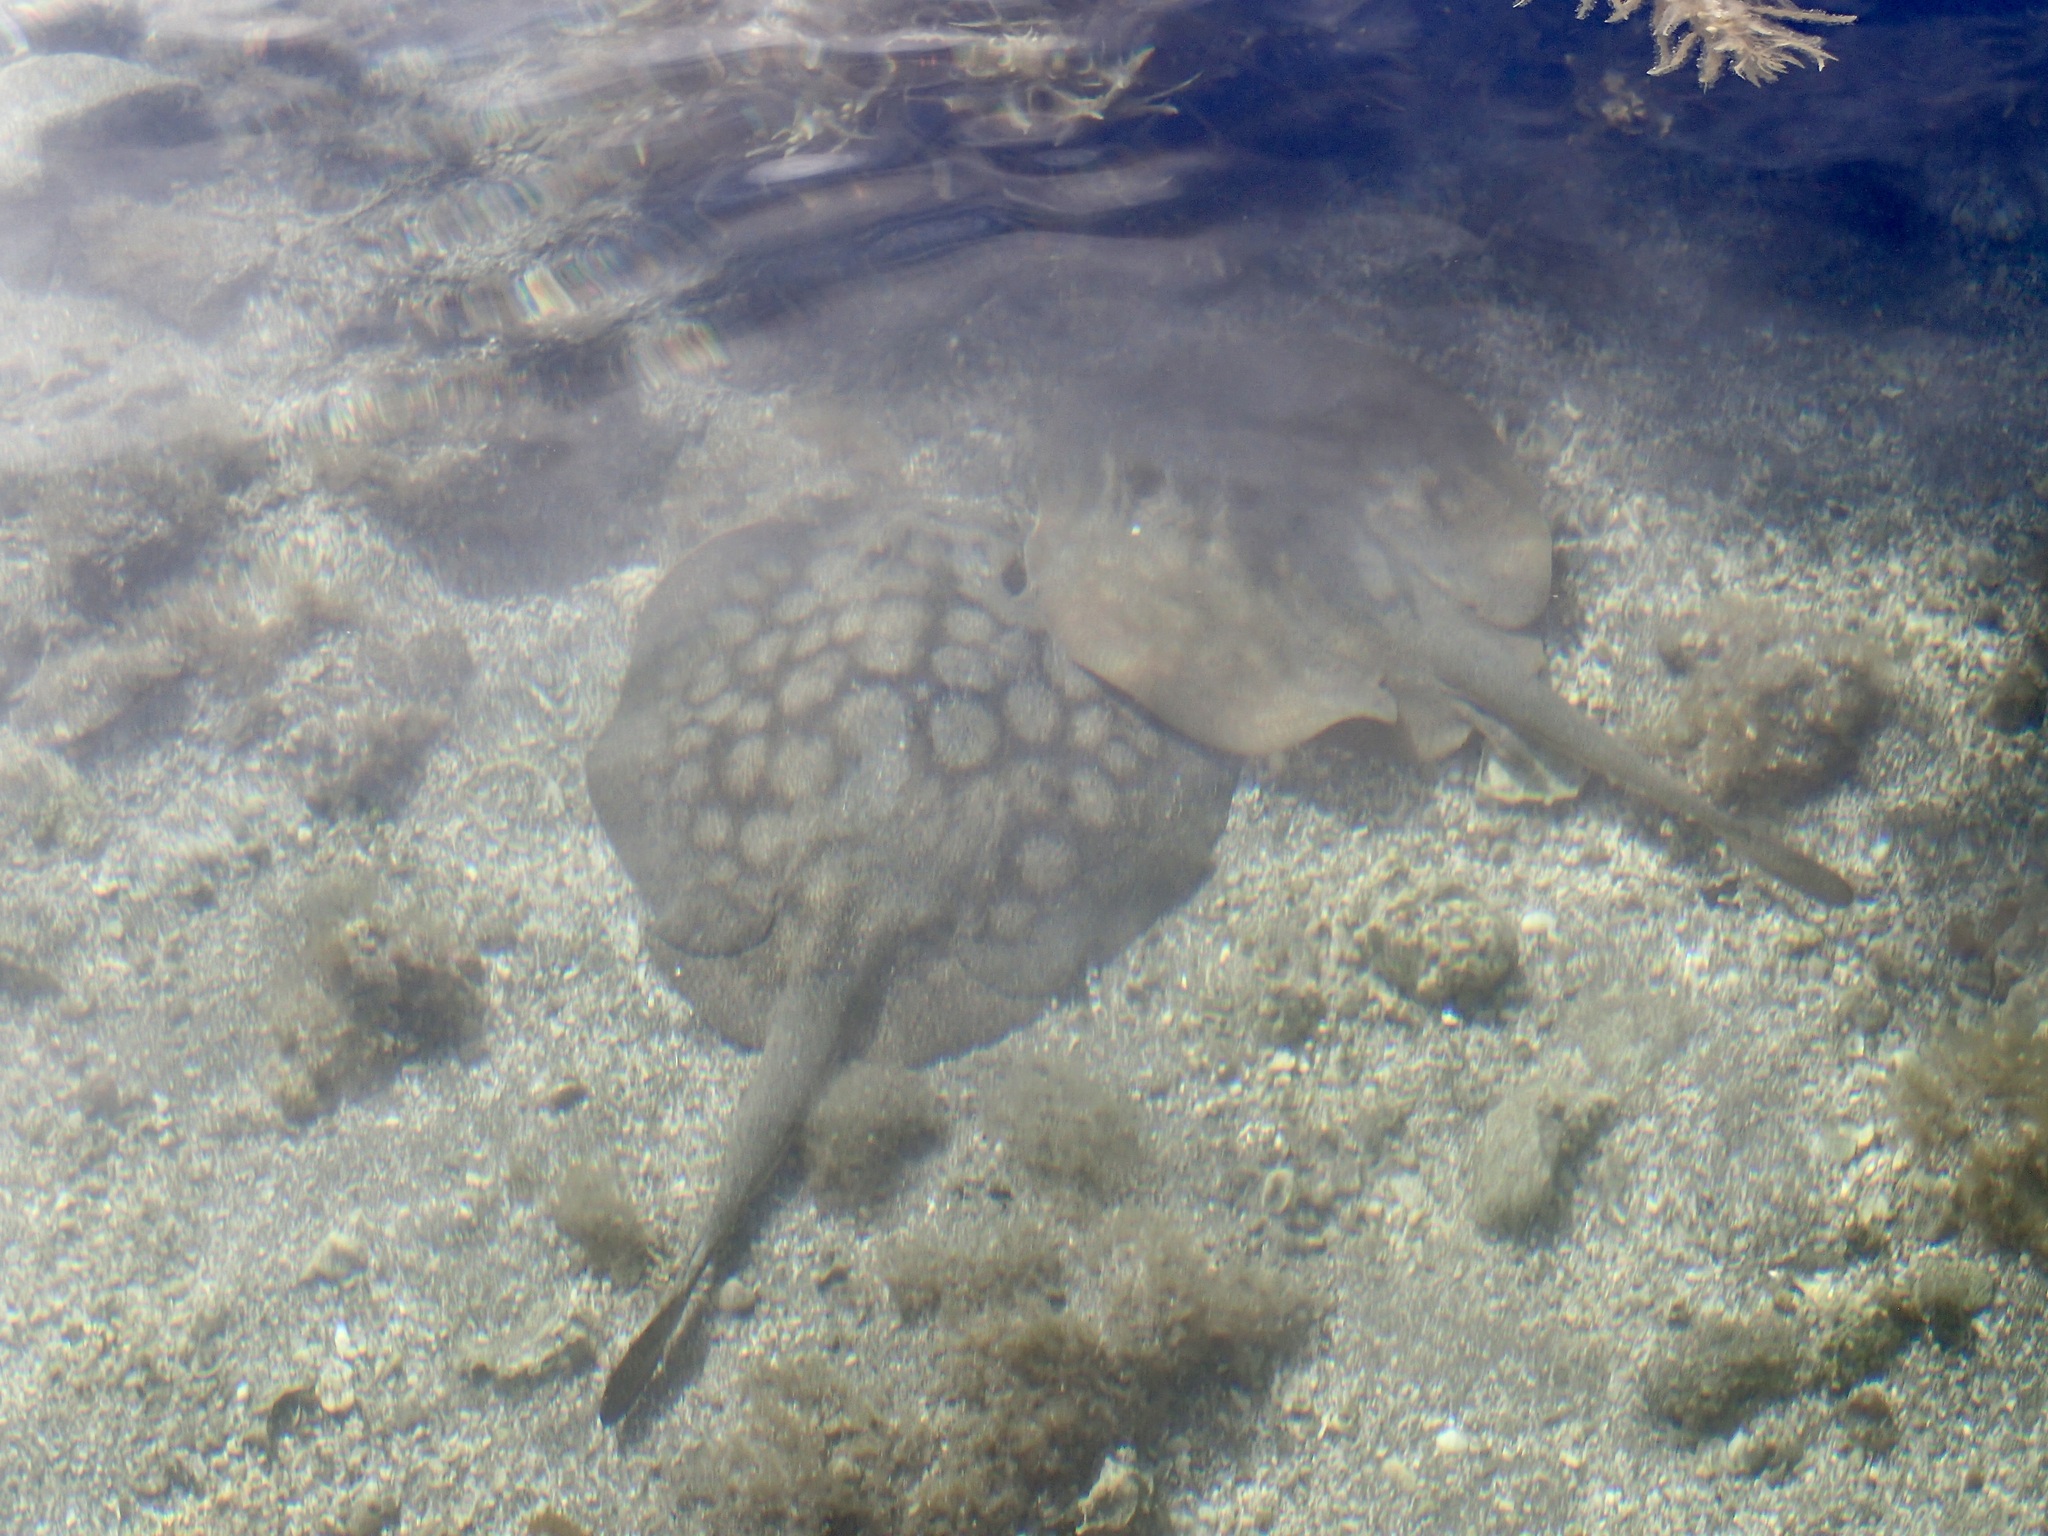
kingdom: Animalia
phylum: Chordata
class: Elasmobranchii
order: Myliobatiformes
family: Urolophidae
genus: Urolophus
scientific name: Urolophus halleri
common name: Round stingray
